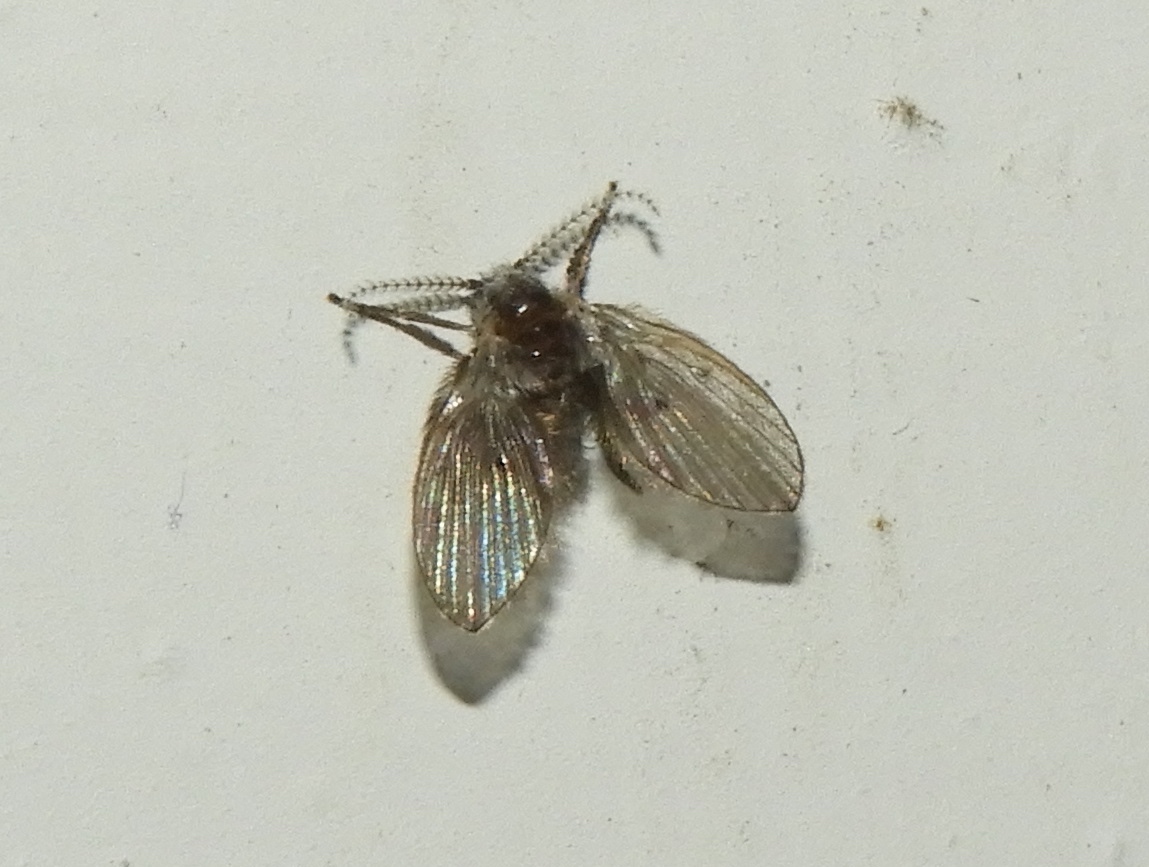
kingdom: Animalia
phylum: Arthropoda
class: Insecta
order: Diptera
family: Psychodidae
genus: Clogmia
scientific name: Clogmia albipunctatus
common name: White-spotted moth fly
